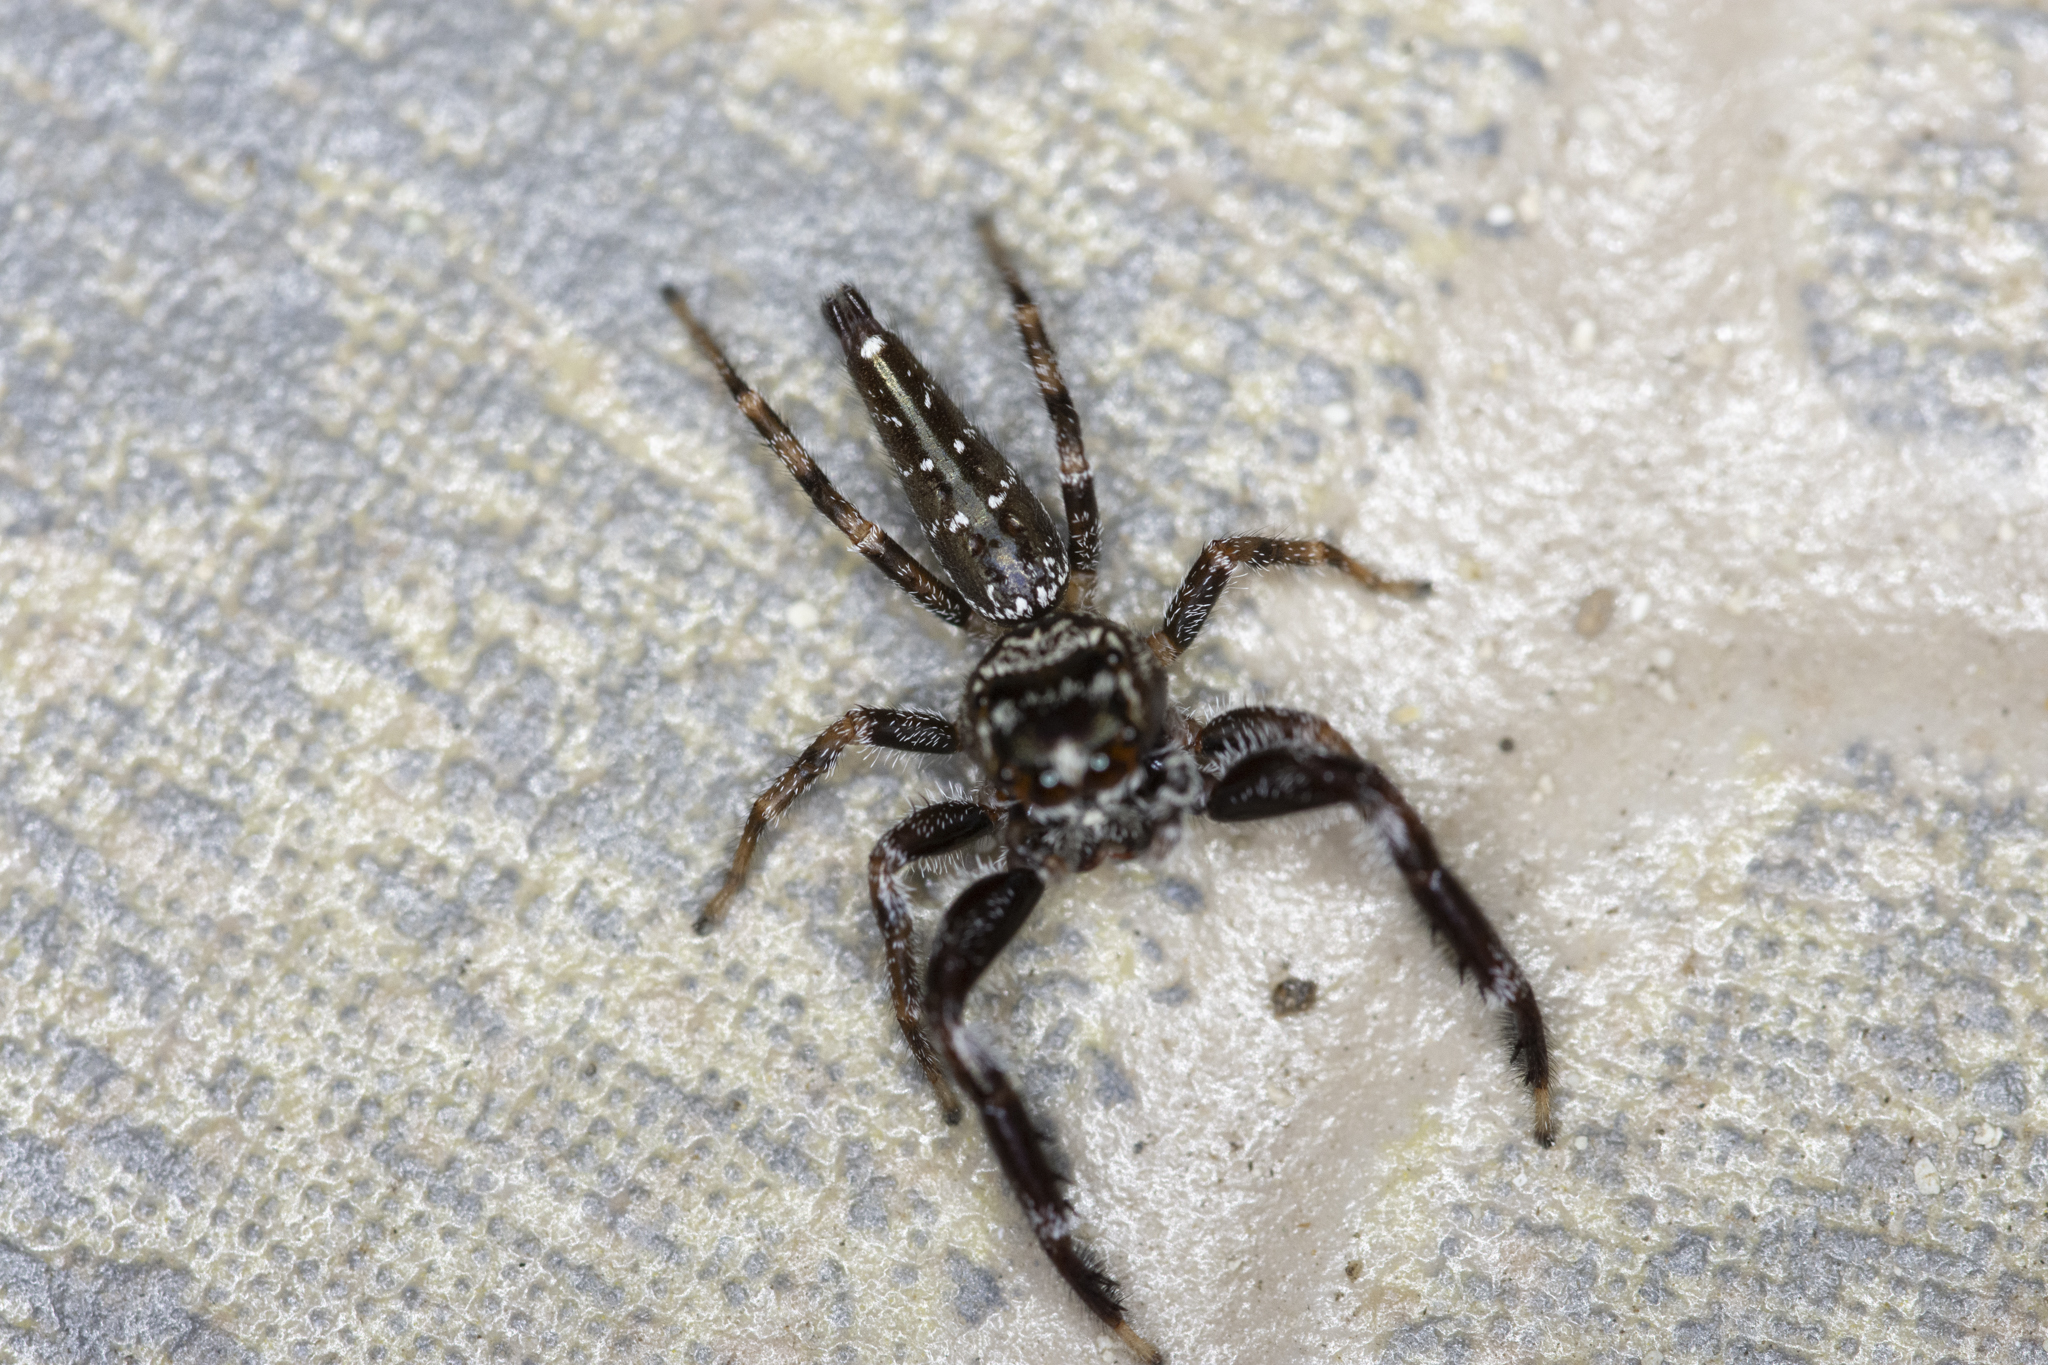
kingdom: Animalia
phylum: Arthropoda
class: Arachnida
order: Araneae
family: Salticidae
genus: Bavia
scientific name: Bavia sexpunctata
